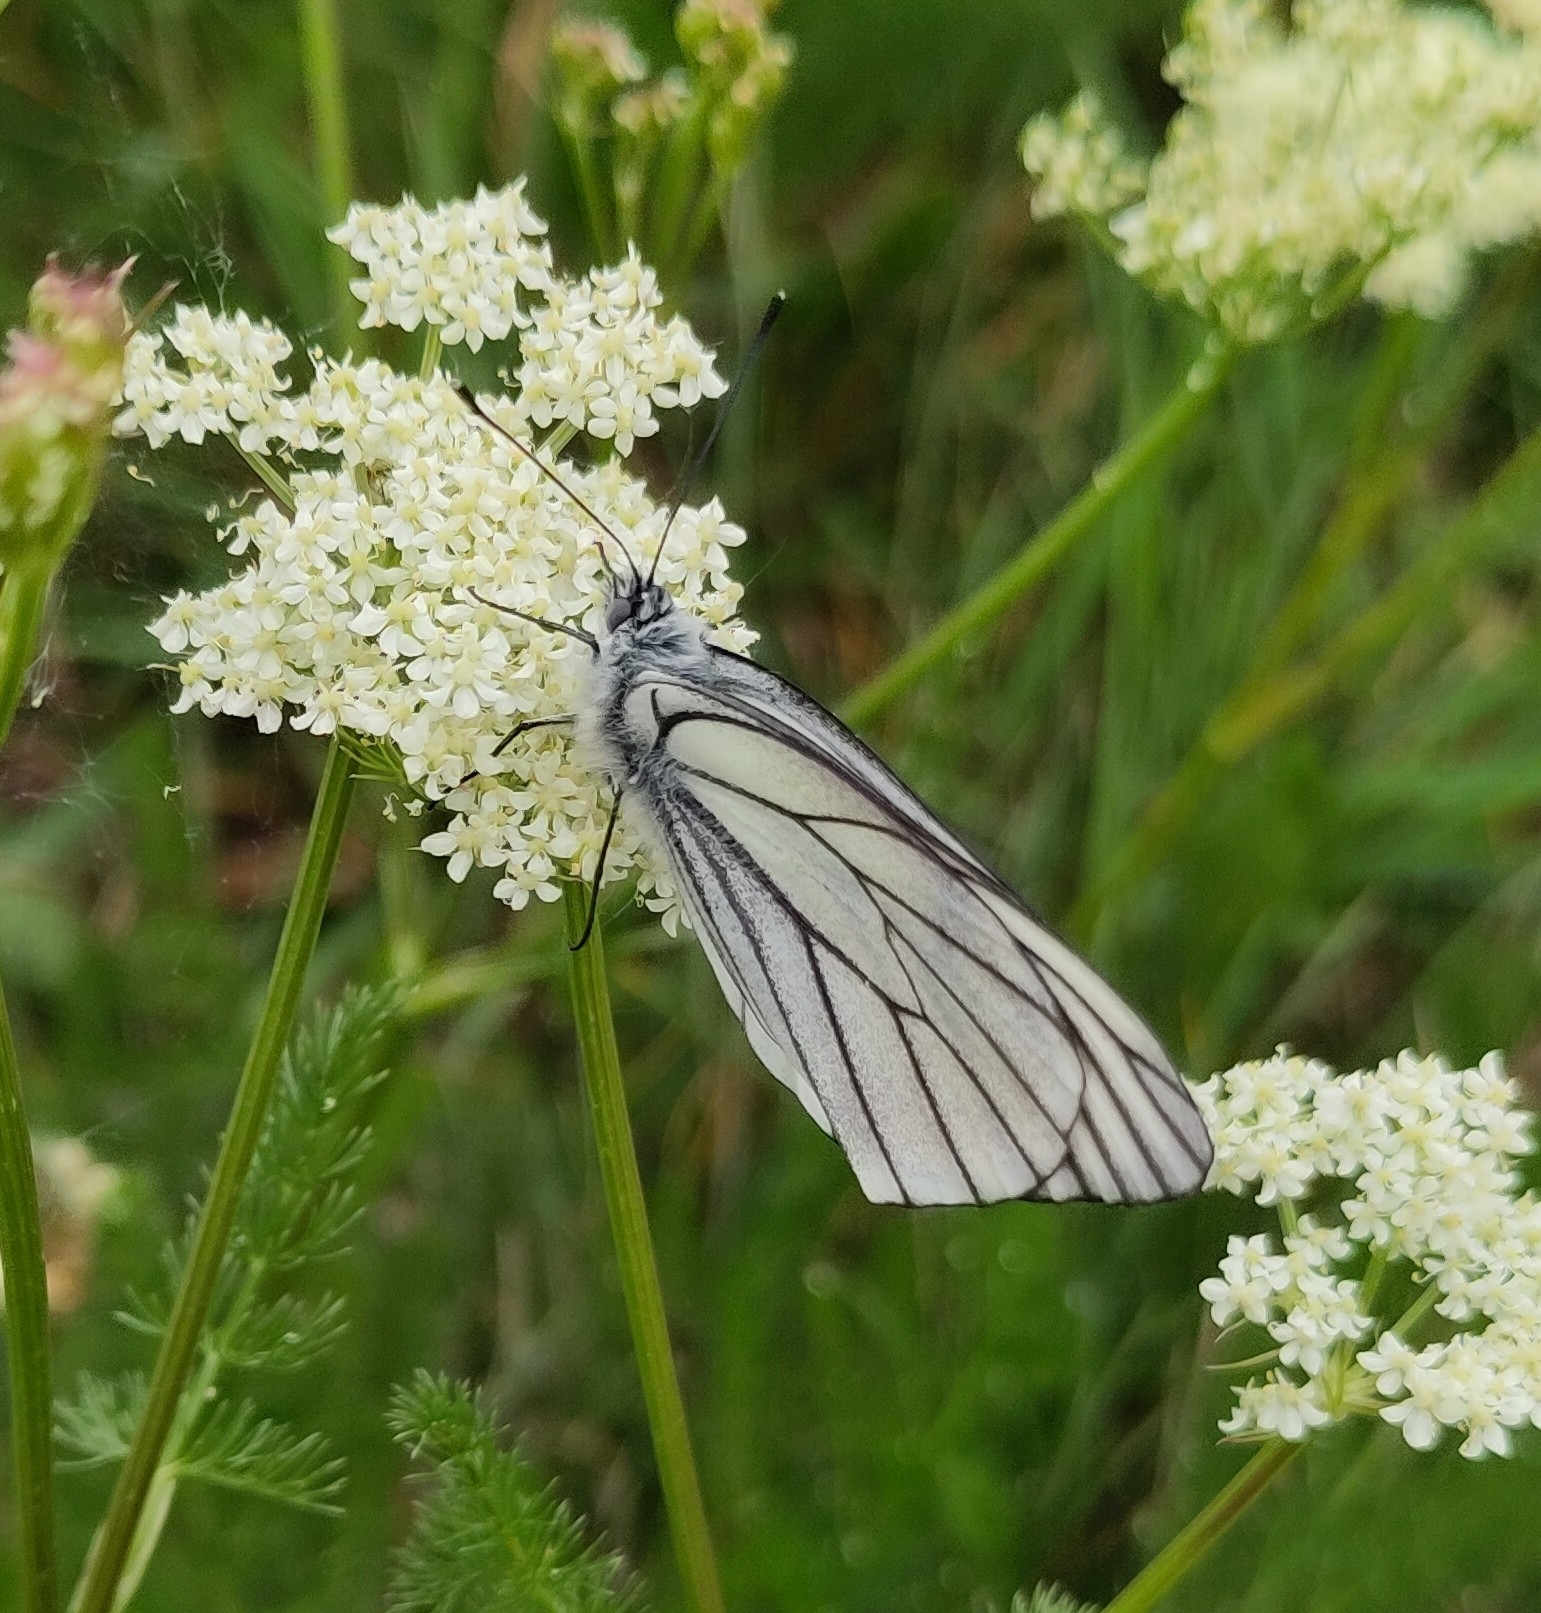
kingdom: Animalia
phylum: Arthropoda
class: Insecta
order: Lepidoptera
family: Pieridae
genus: Aporia
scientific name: Aporia crataegi
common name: Black-veined white
